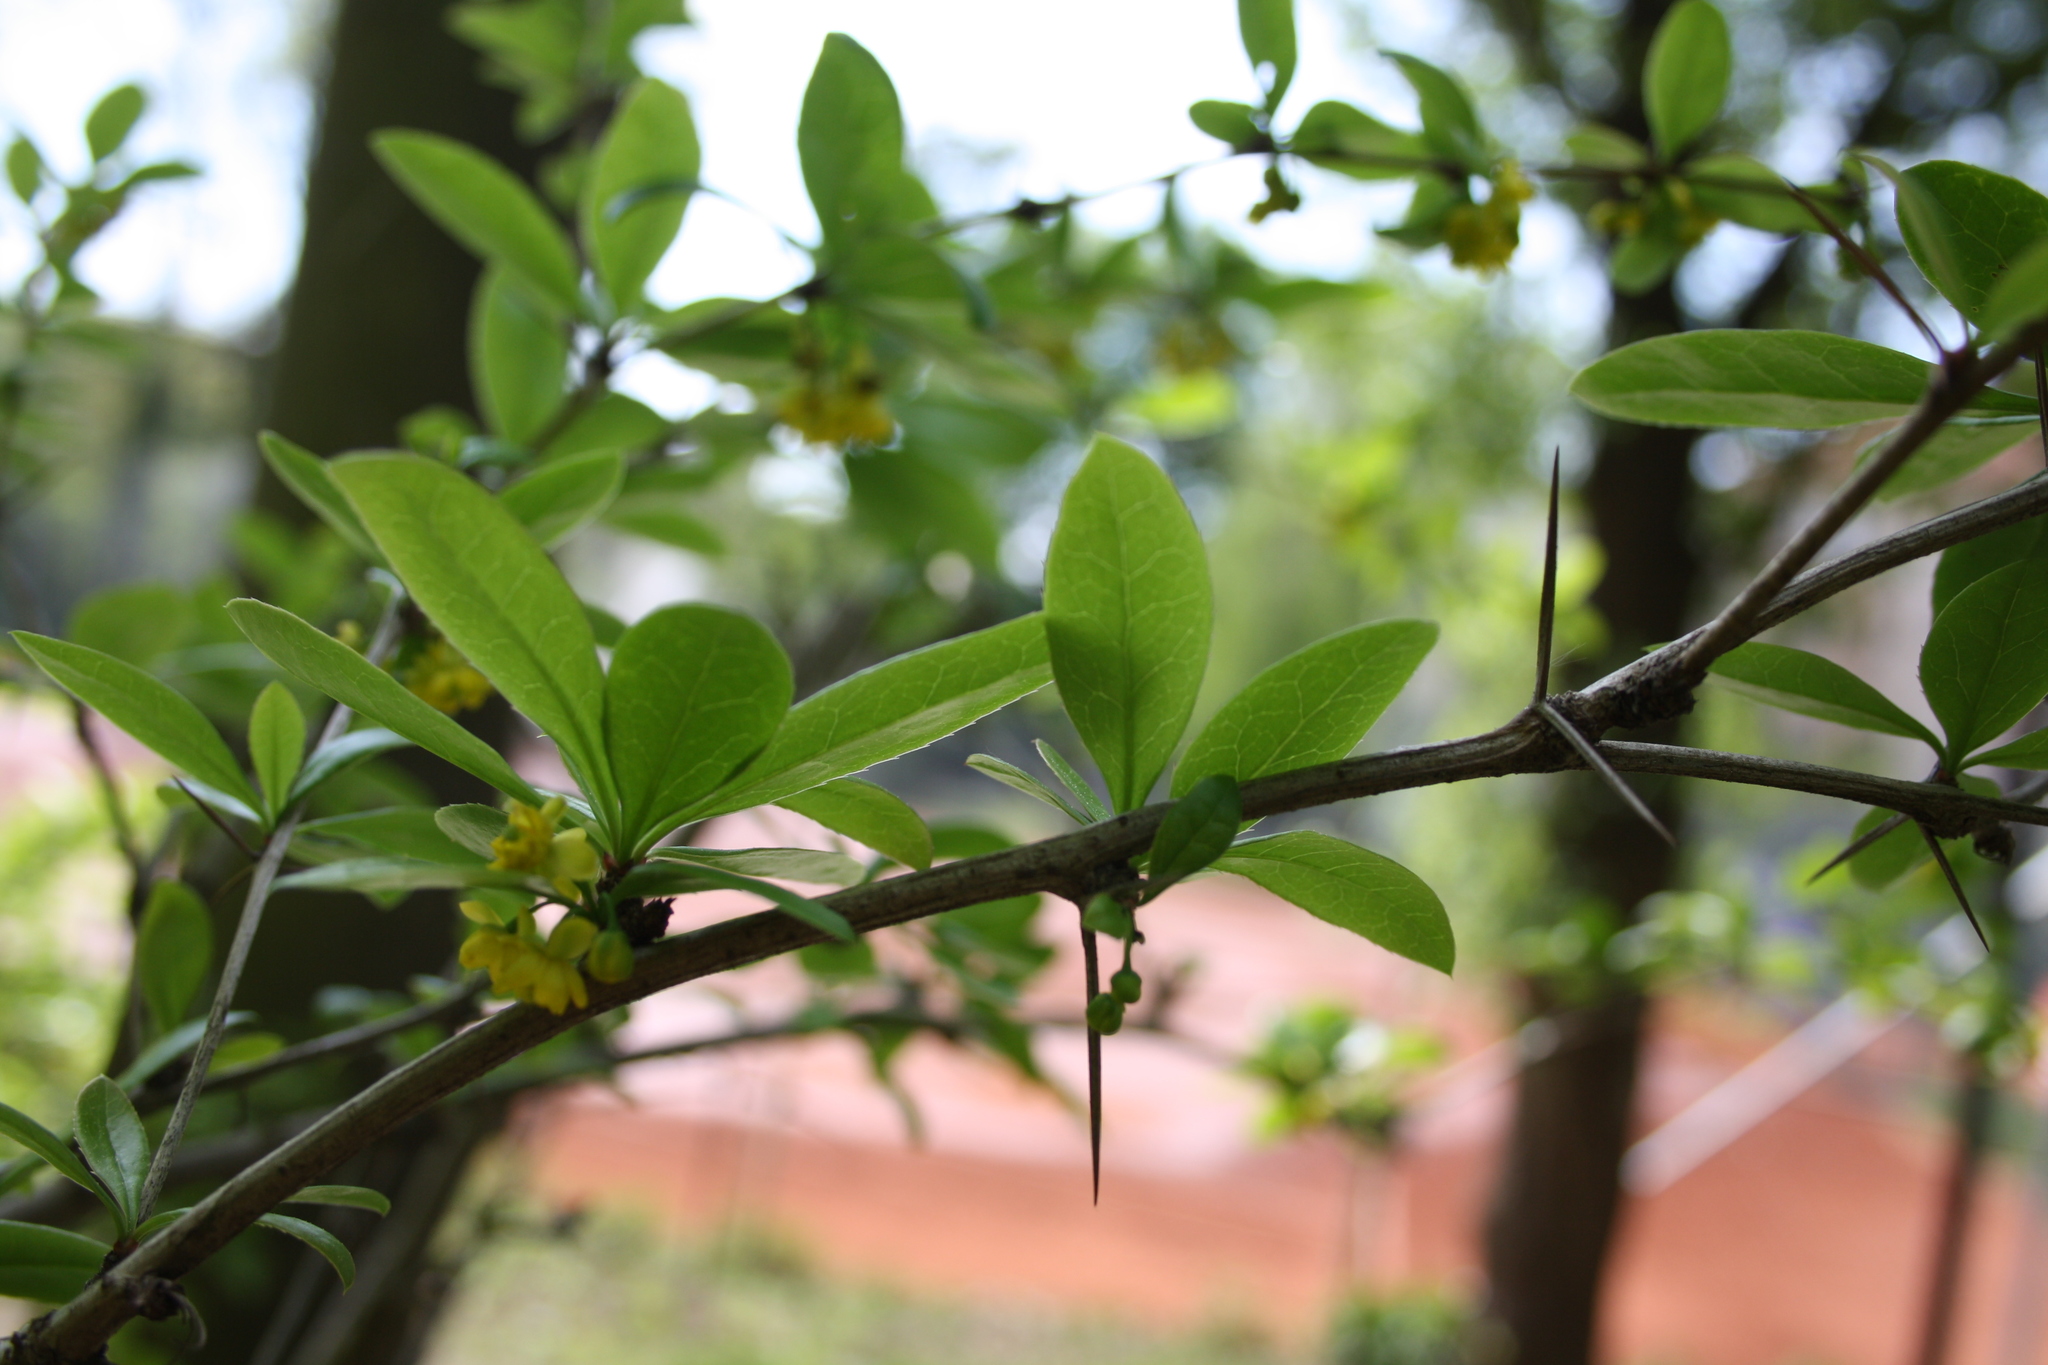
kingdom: Plantae
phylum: Tracheophyta
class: Magnoliopsida
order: Ranunculales
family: Berberidaceae
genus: Berberis
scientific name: Berberis vulgaris
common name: Barberry
